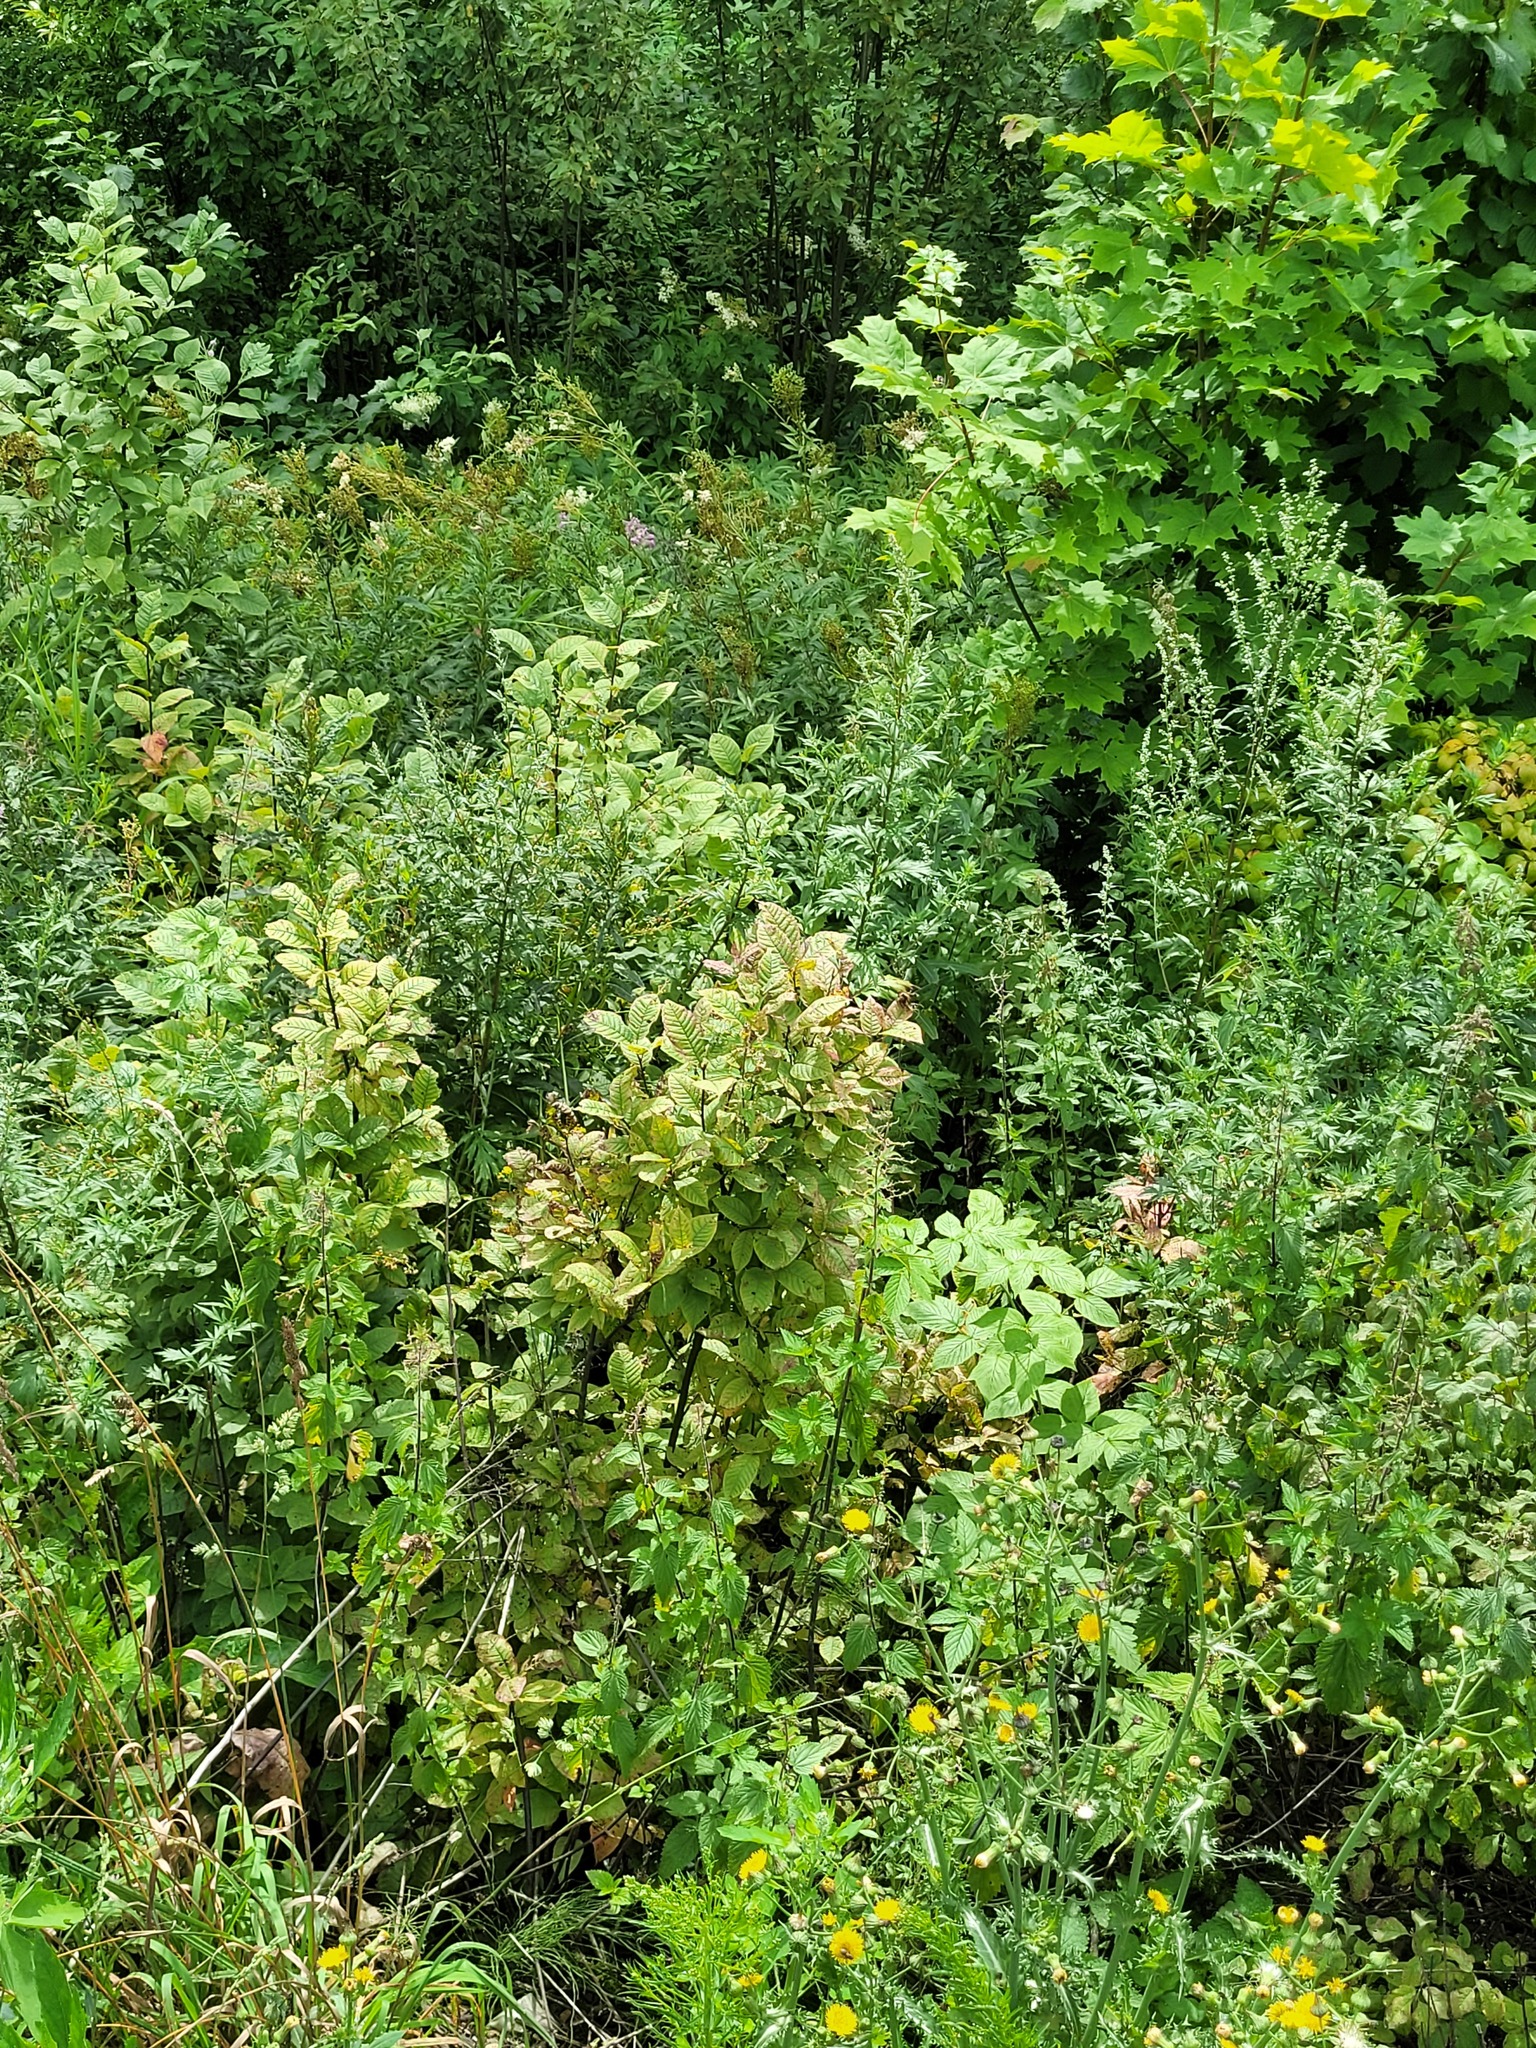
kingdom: Plantae
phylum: Tracheophyta
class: Magnoliopsida
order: Rosales
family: Rosaceae
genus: Prunus
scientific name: Prunus padus
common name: Bird cherry
